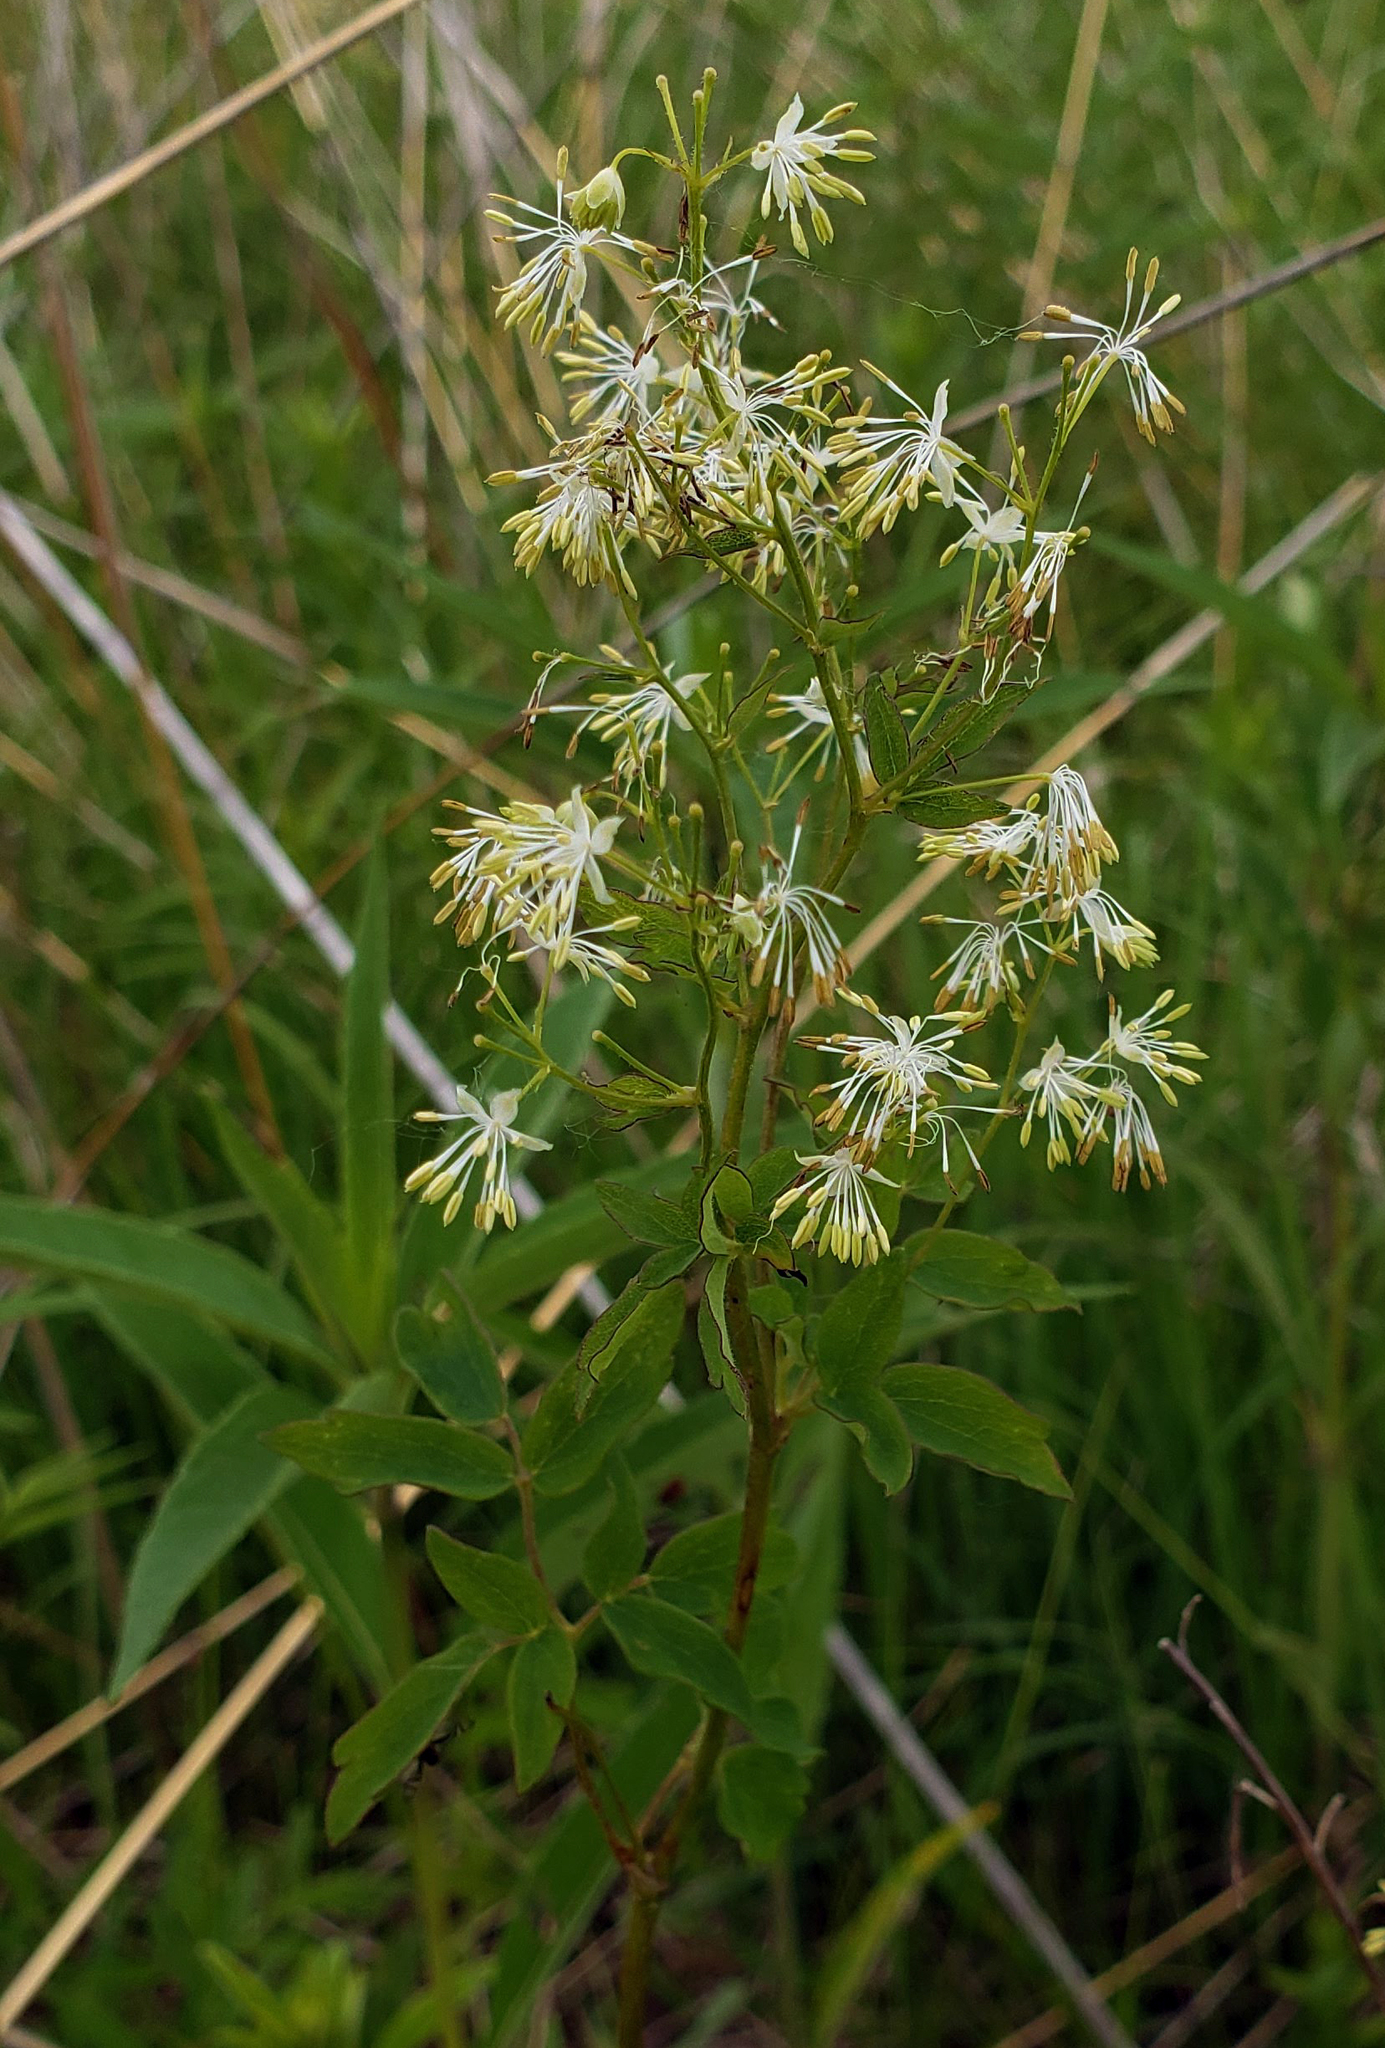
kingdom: Plantae
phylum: Tracheophyta
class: Magnoliopsida
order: Ranunculales
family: Ranunculaceae
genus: Thalictrum
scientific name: Thalictrum dasycarpum
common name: Purple meadow-rue
